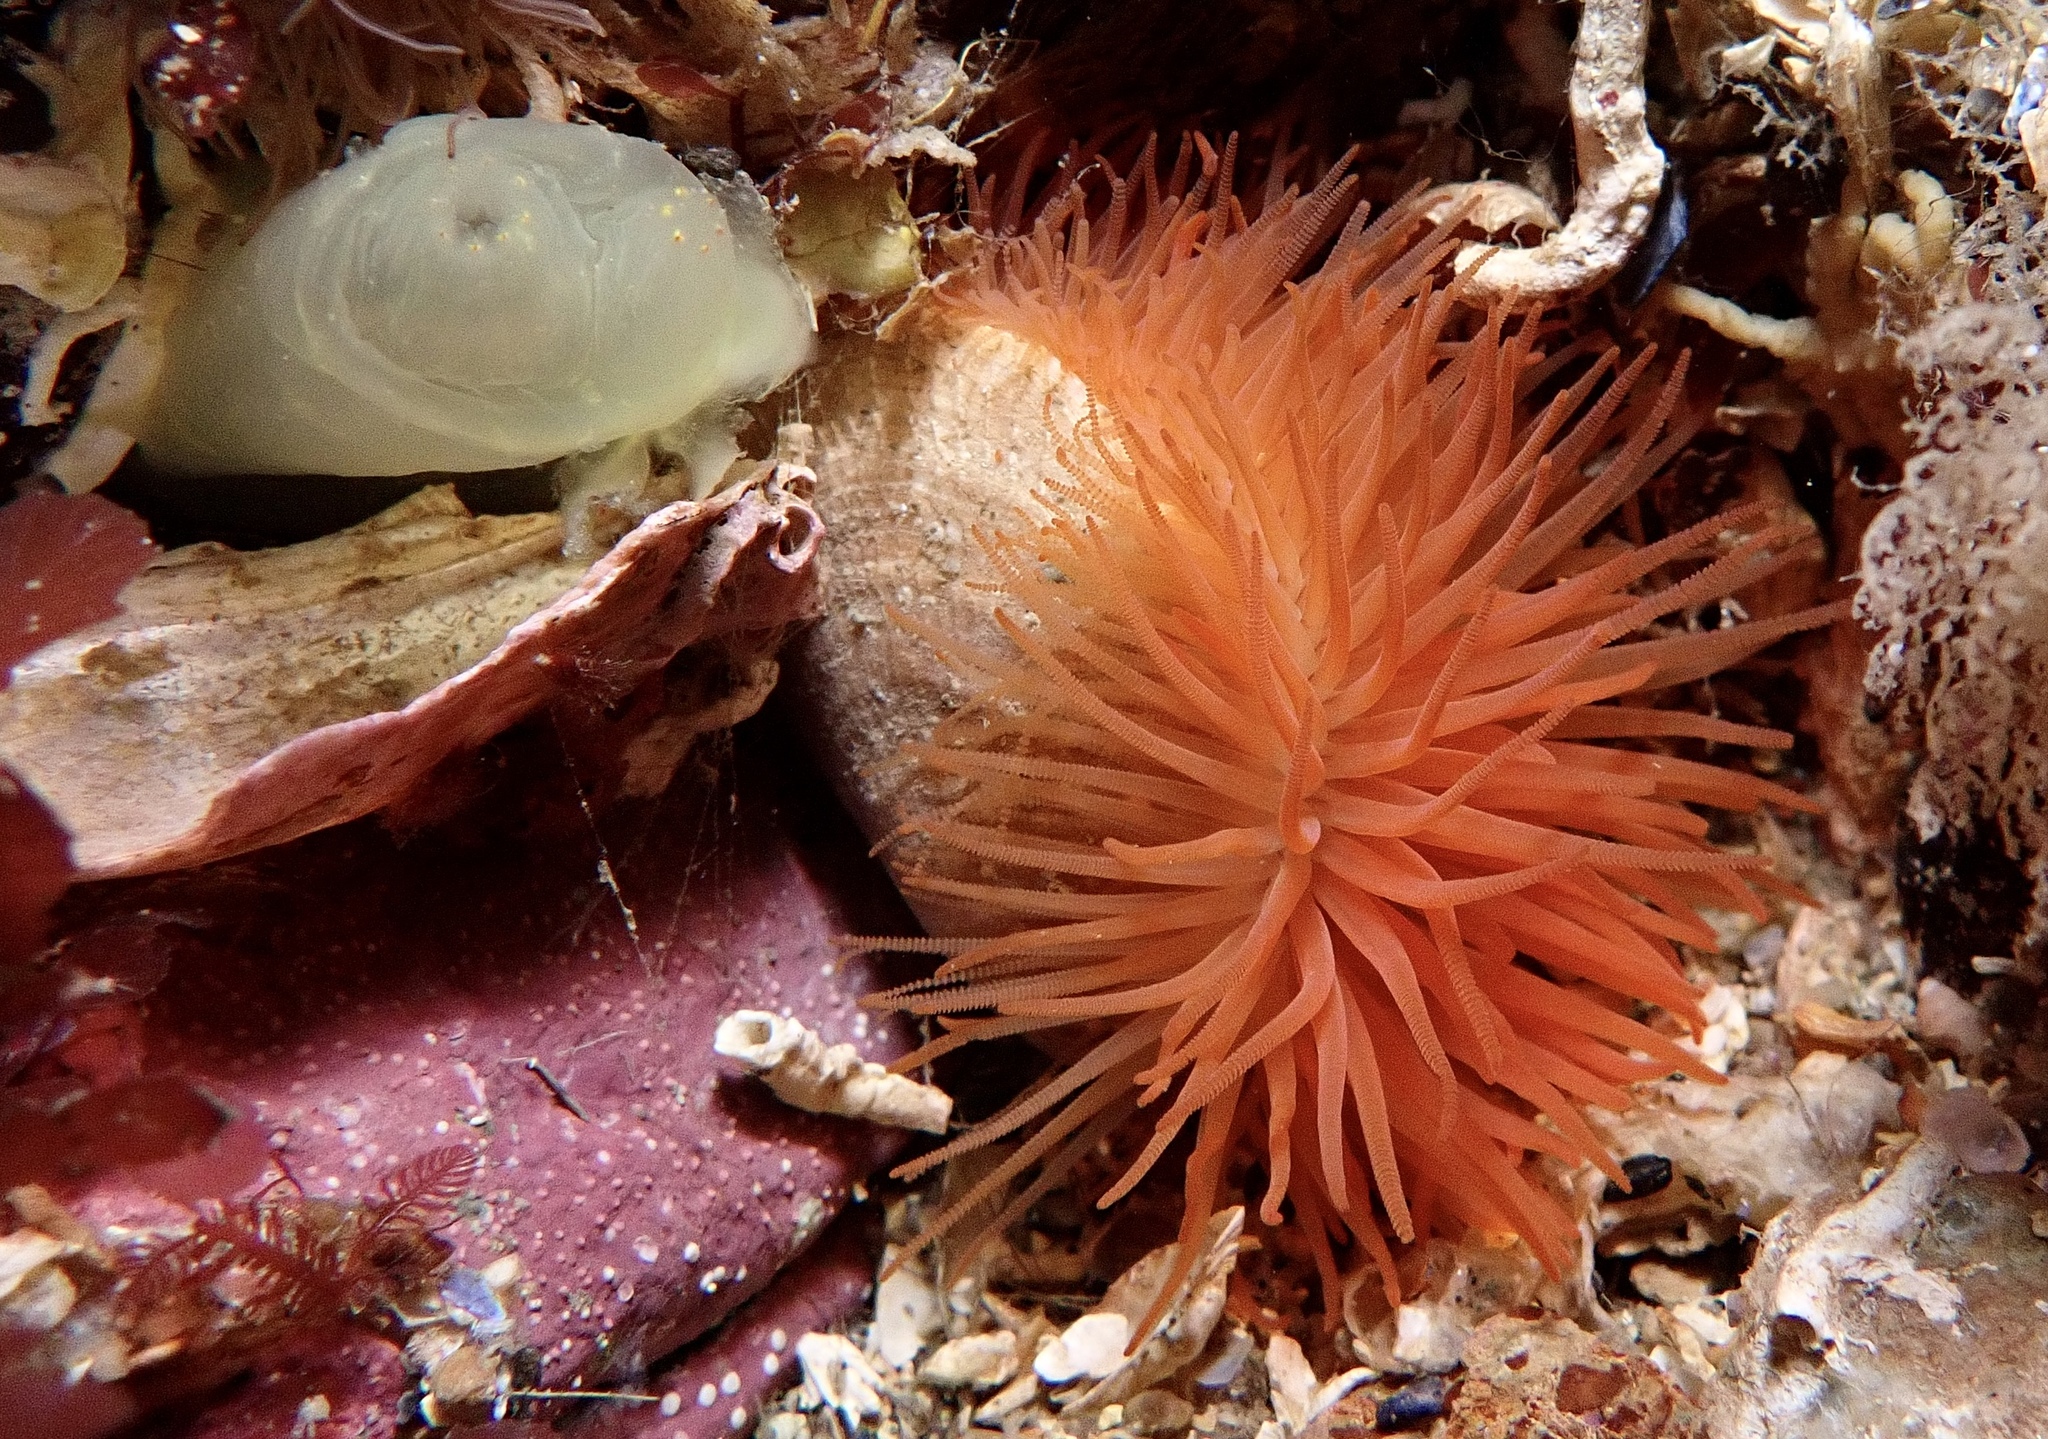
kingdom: Animalia
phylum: Mollusca
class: Bivalvia
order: Limida
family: Limidae
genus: Limaria
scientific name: Limaria hians
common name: Gaping file shale
